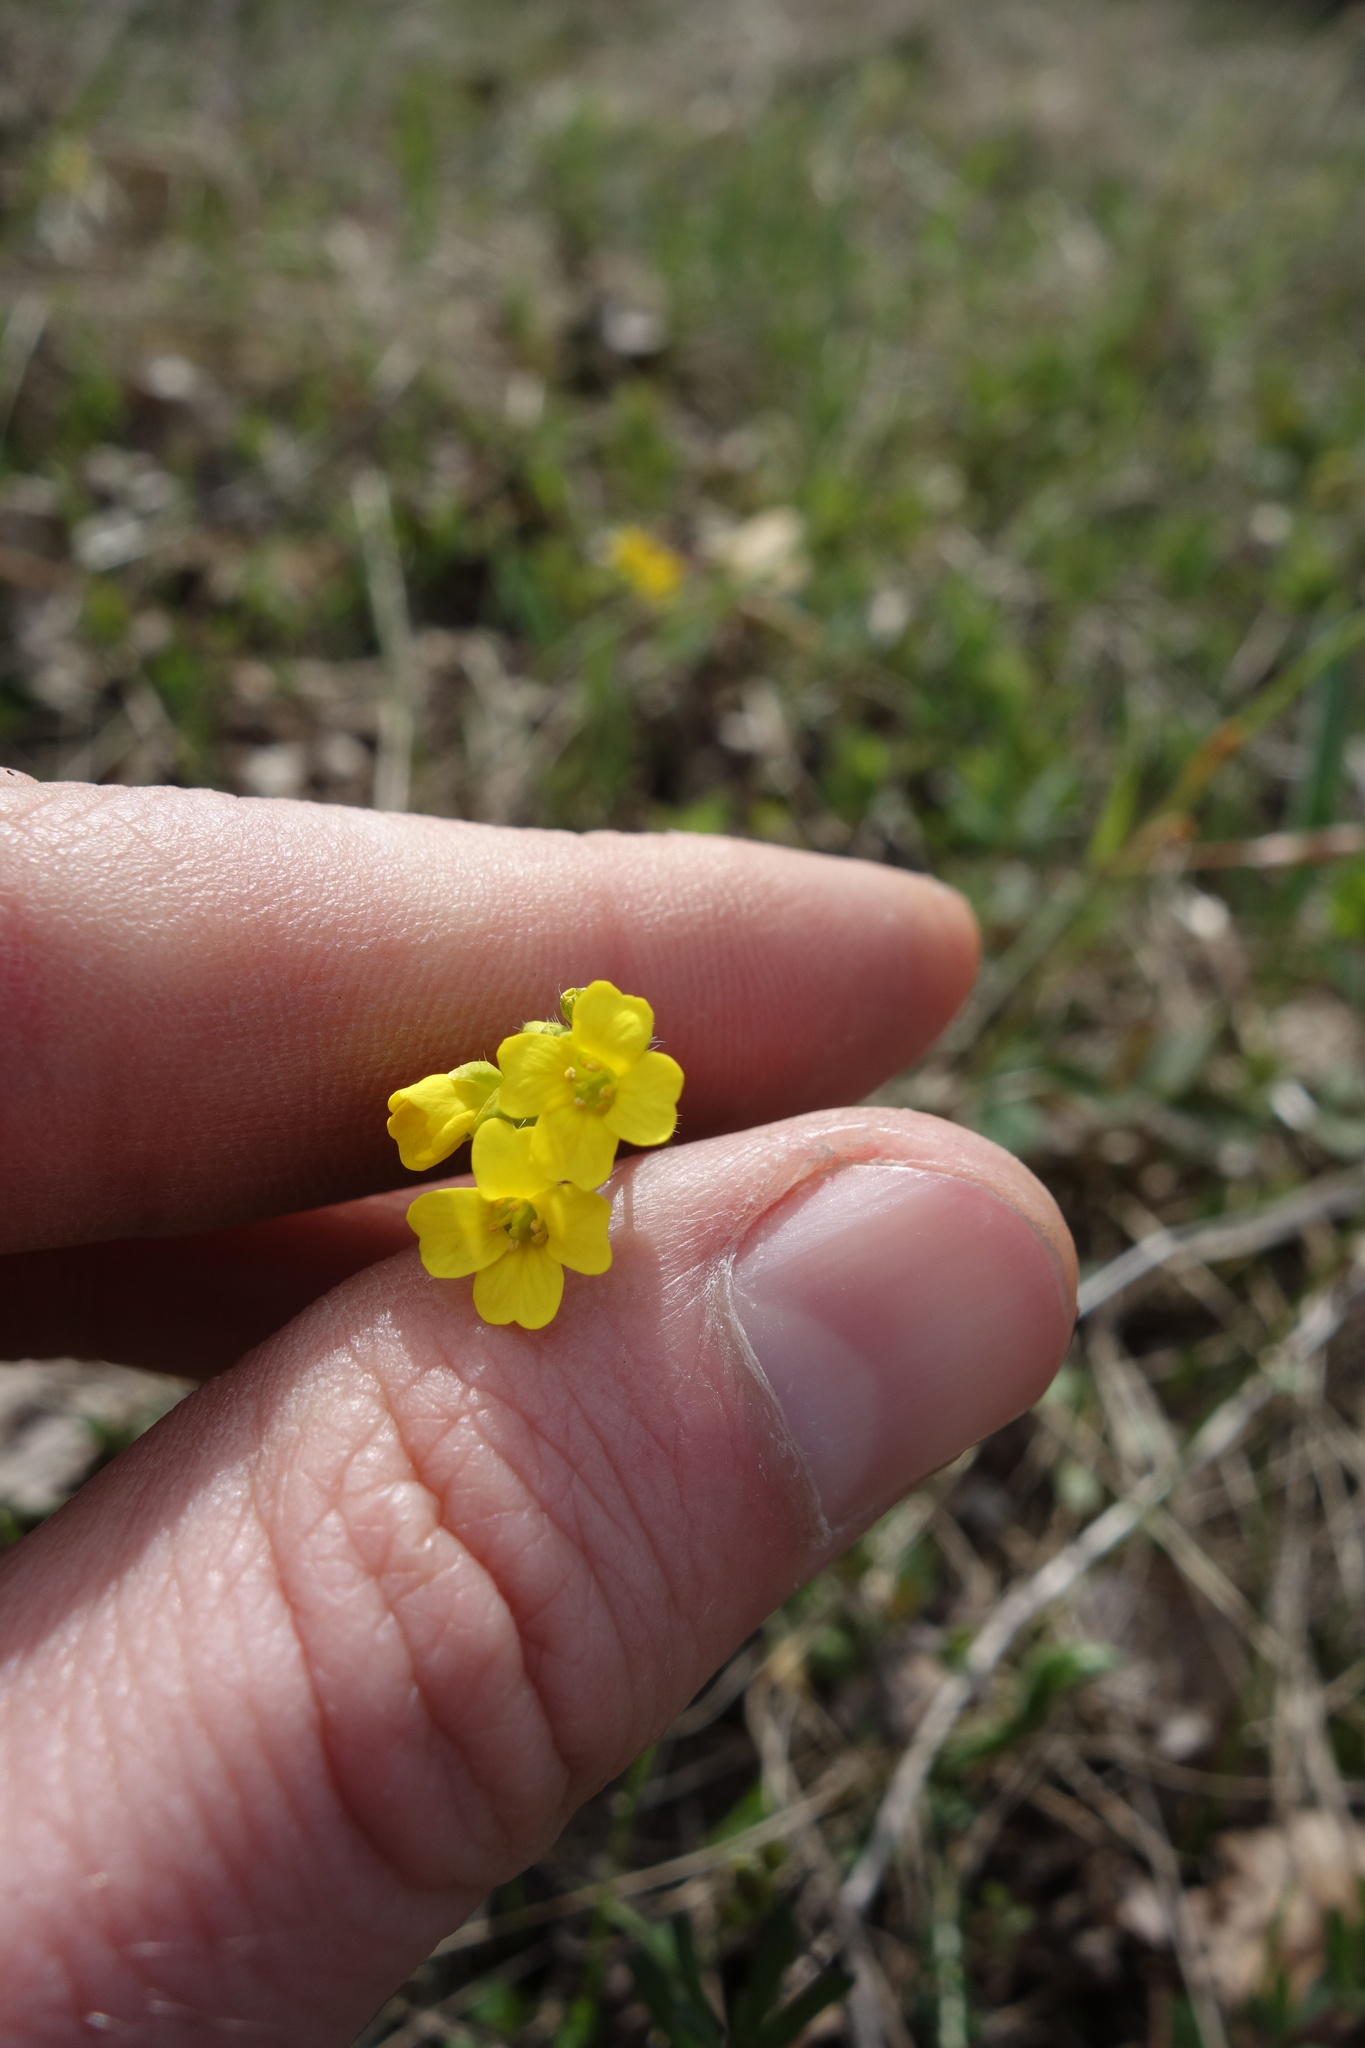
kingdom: Plantae
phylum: Tracheophyta
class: Magnoliopsida
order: Brassicales
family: Brassicaceae
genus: Draba
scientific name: Draba sibirica
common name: Siberian draba
